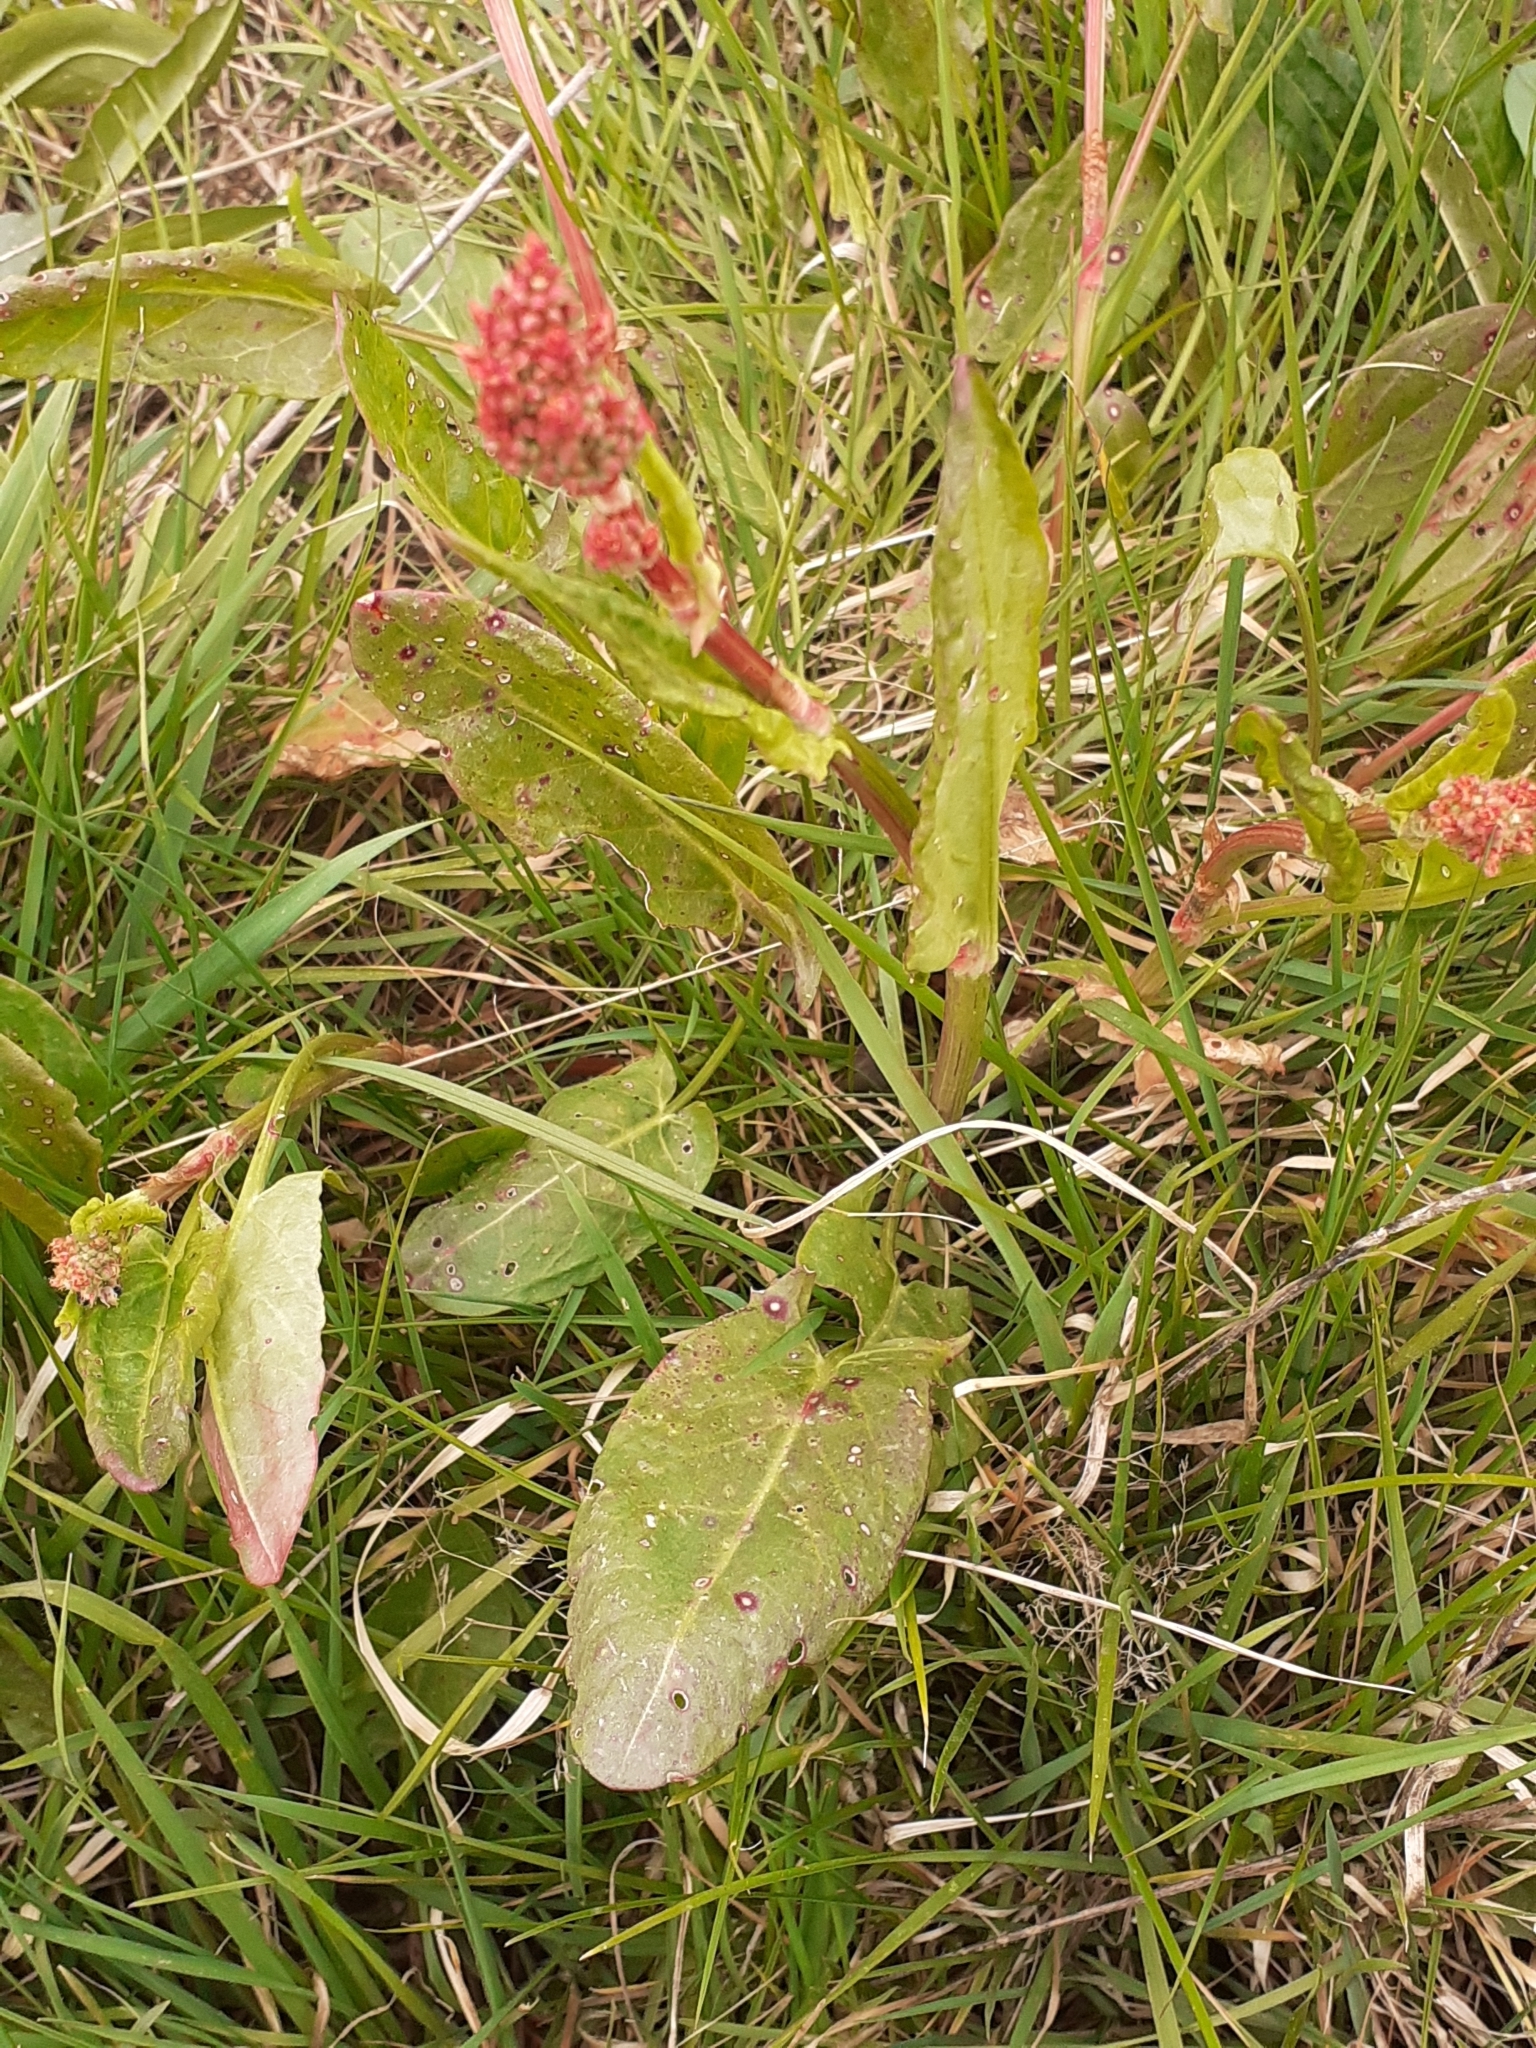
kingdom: Plantae
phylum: Tracheophyta
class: Magnoliopsida
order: Caryophyllales
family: Polygonaceae
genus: Rumex
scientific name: Rumex acetosa
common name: Garden sorrel
